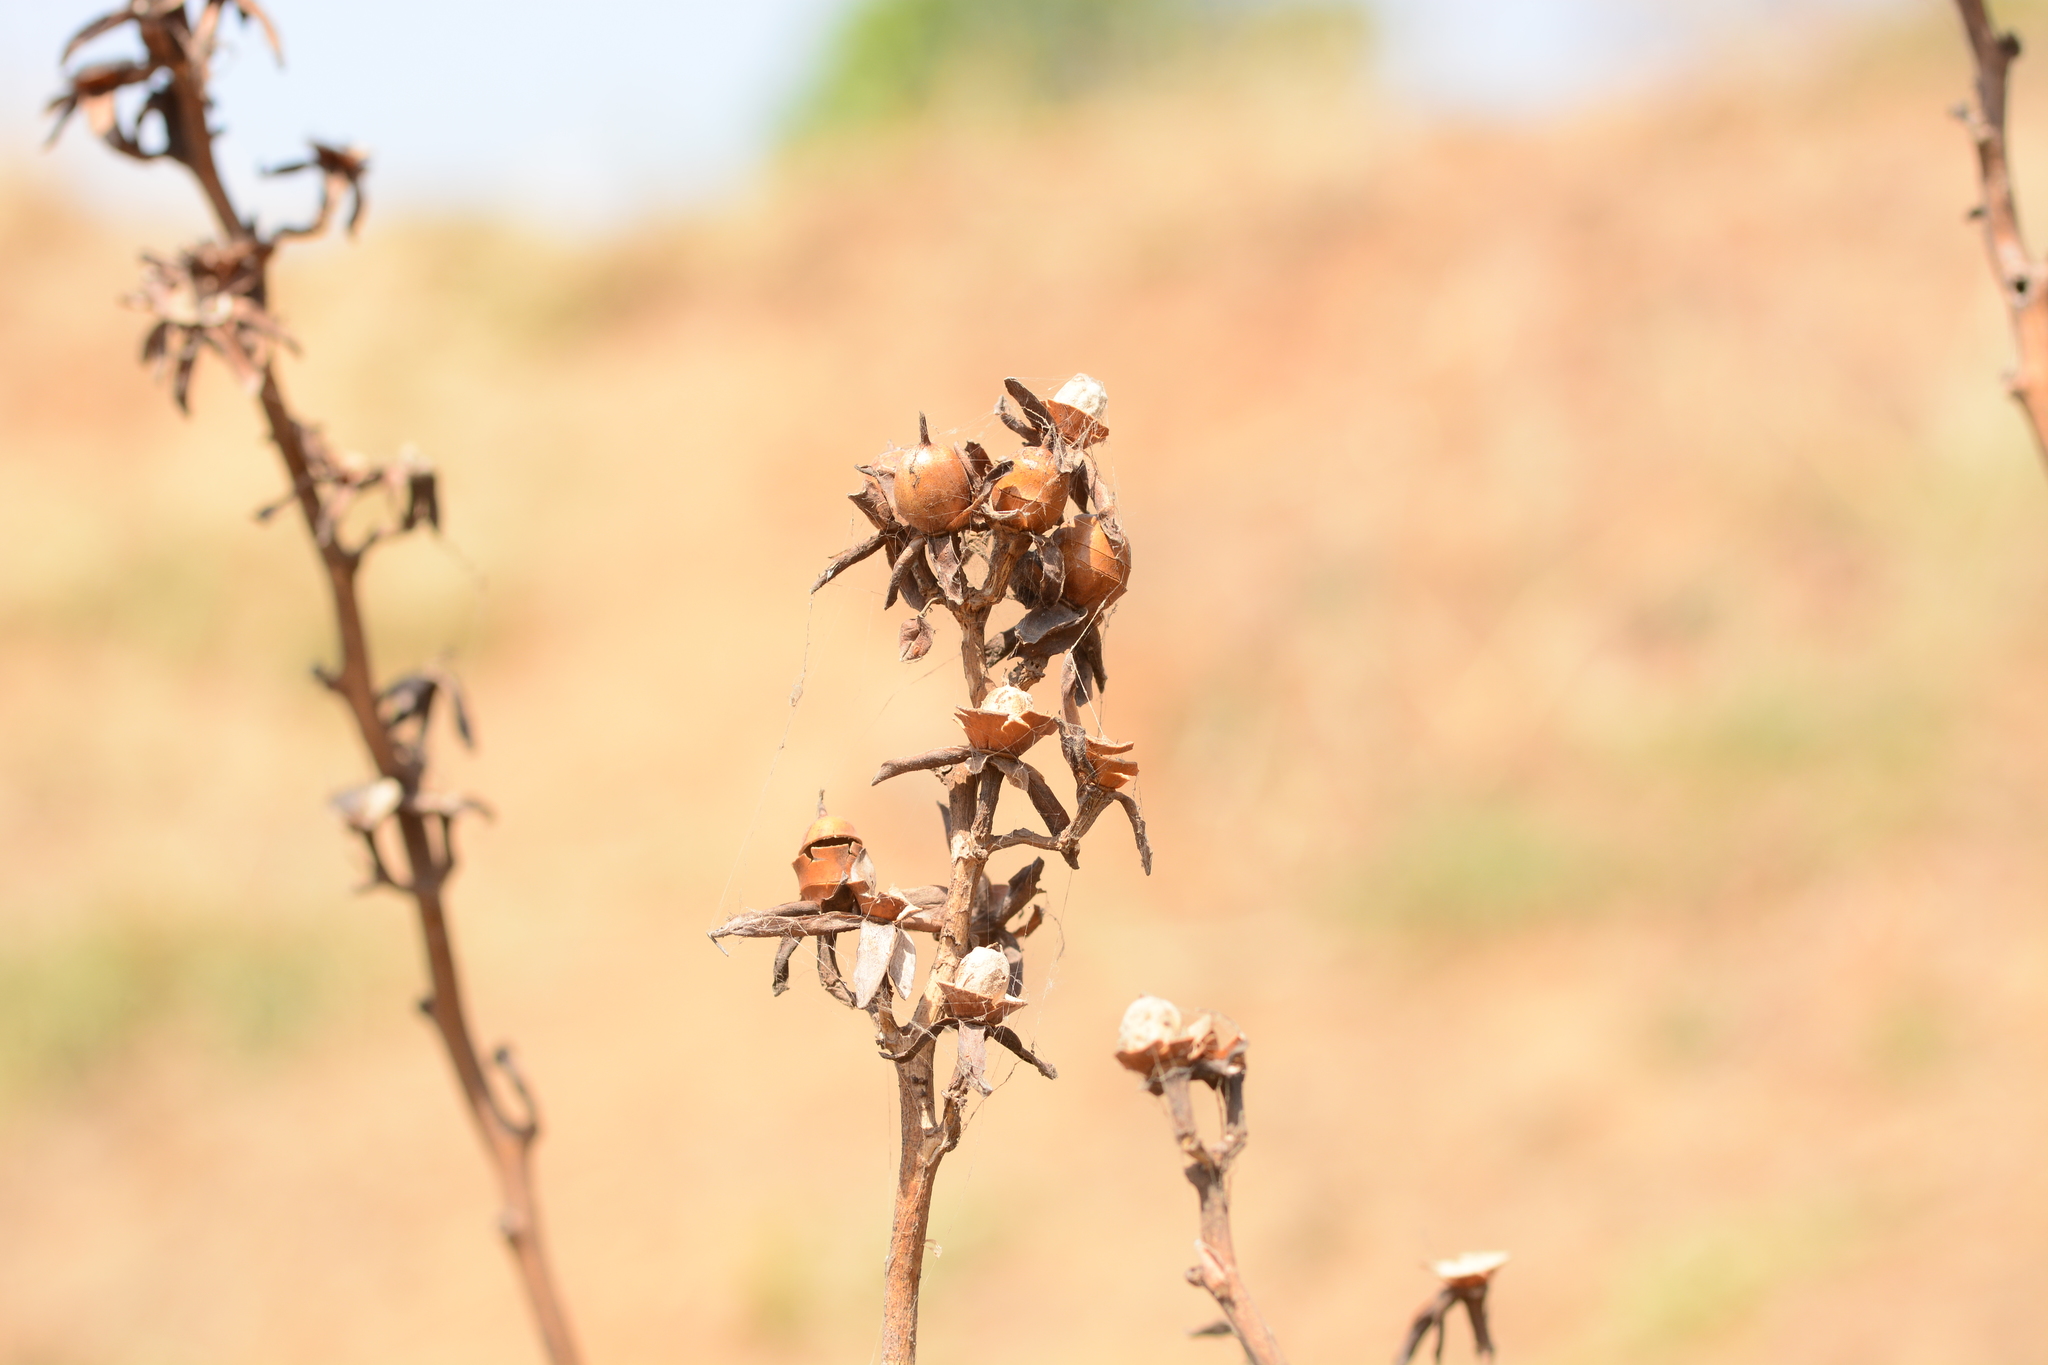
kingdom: Plantae
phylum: Tracheophyta
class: Magnoliopsida
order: Solanales
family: Convolvulaceae
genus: Rivea
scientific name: Rivea ornata
